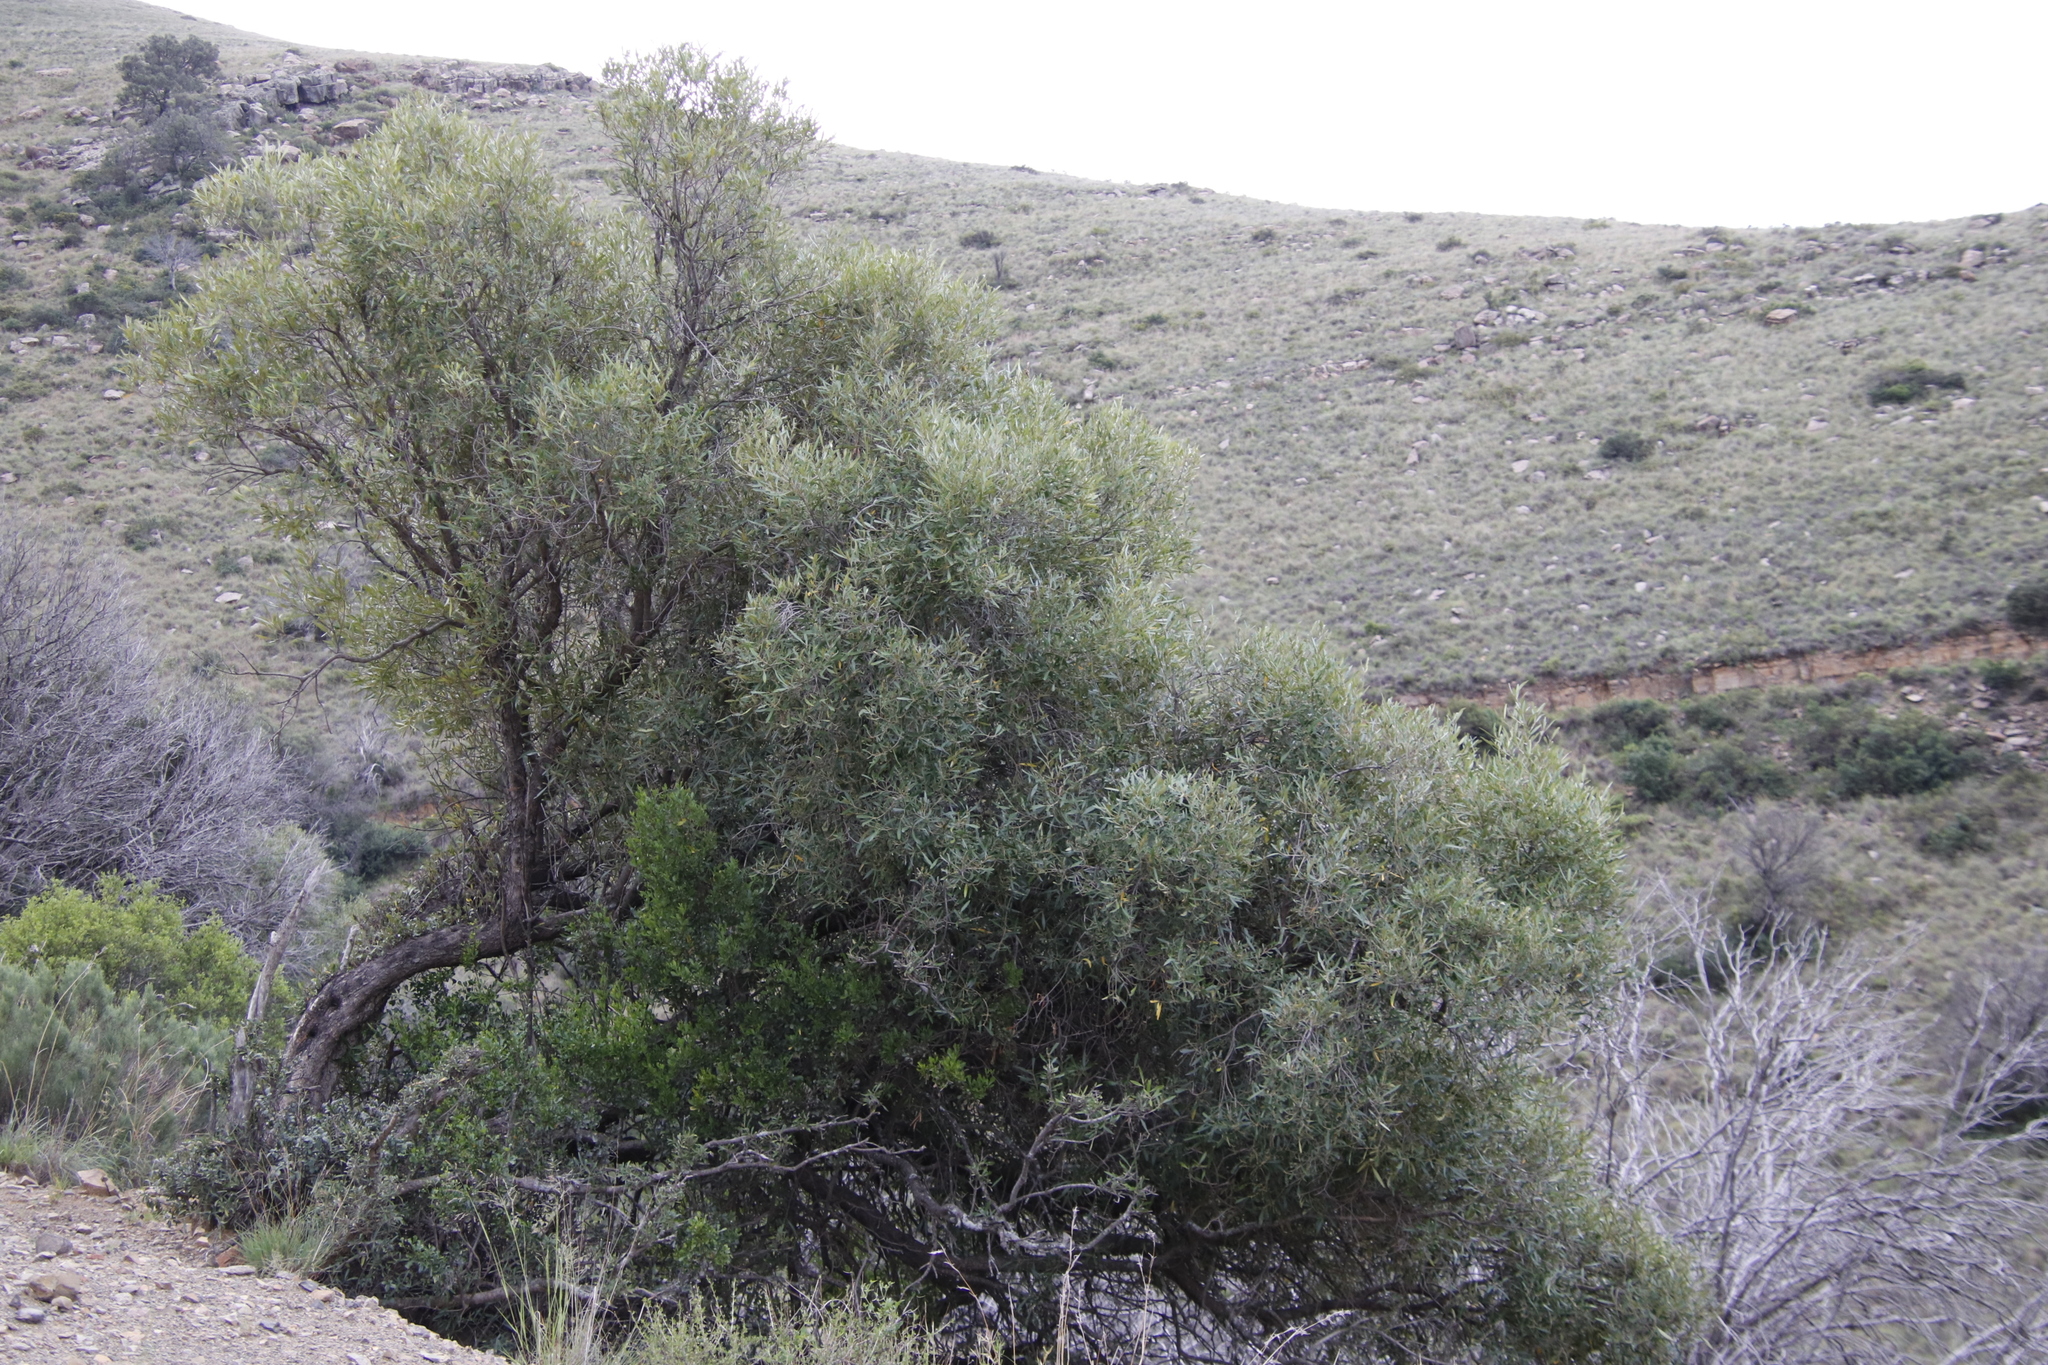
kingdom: Plantae
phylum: Tracheophyta
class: Magnoliopsida
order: Lamiales
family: Oleaceae
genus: Olea
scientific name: Olea europaea
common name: Olive
